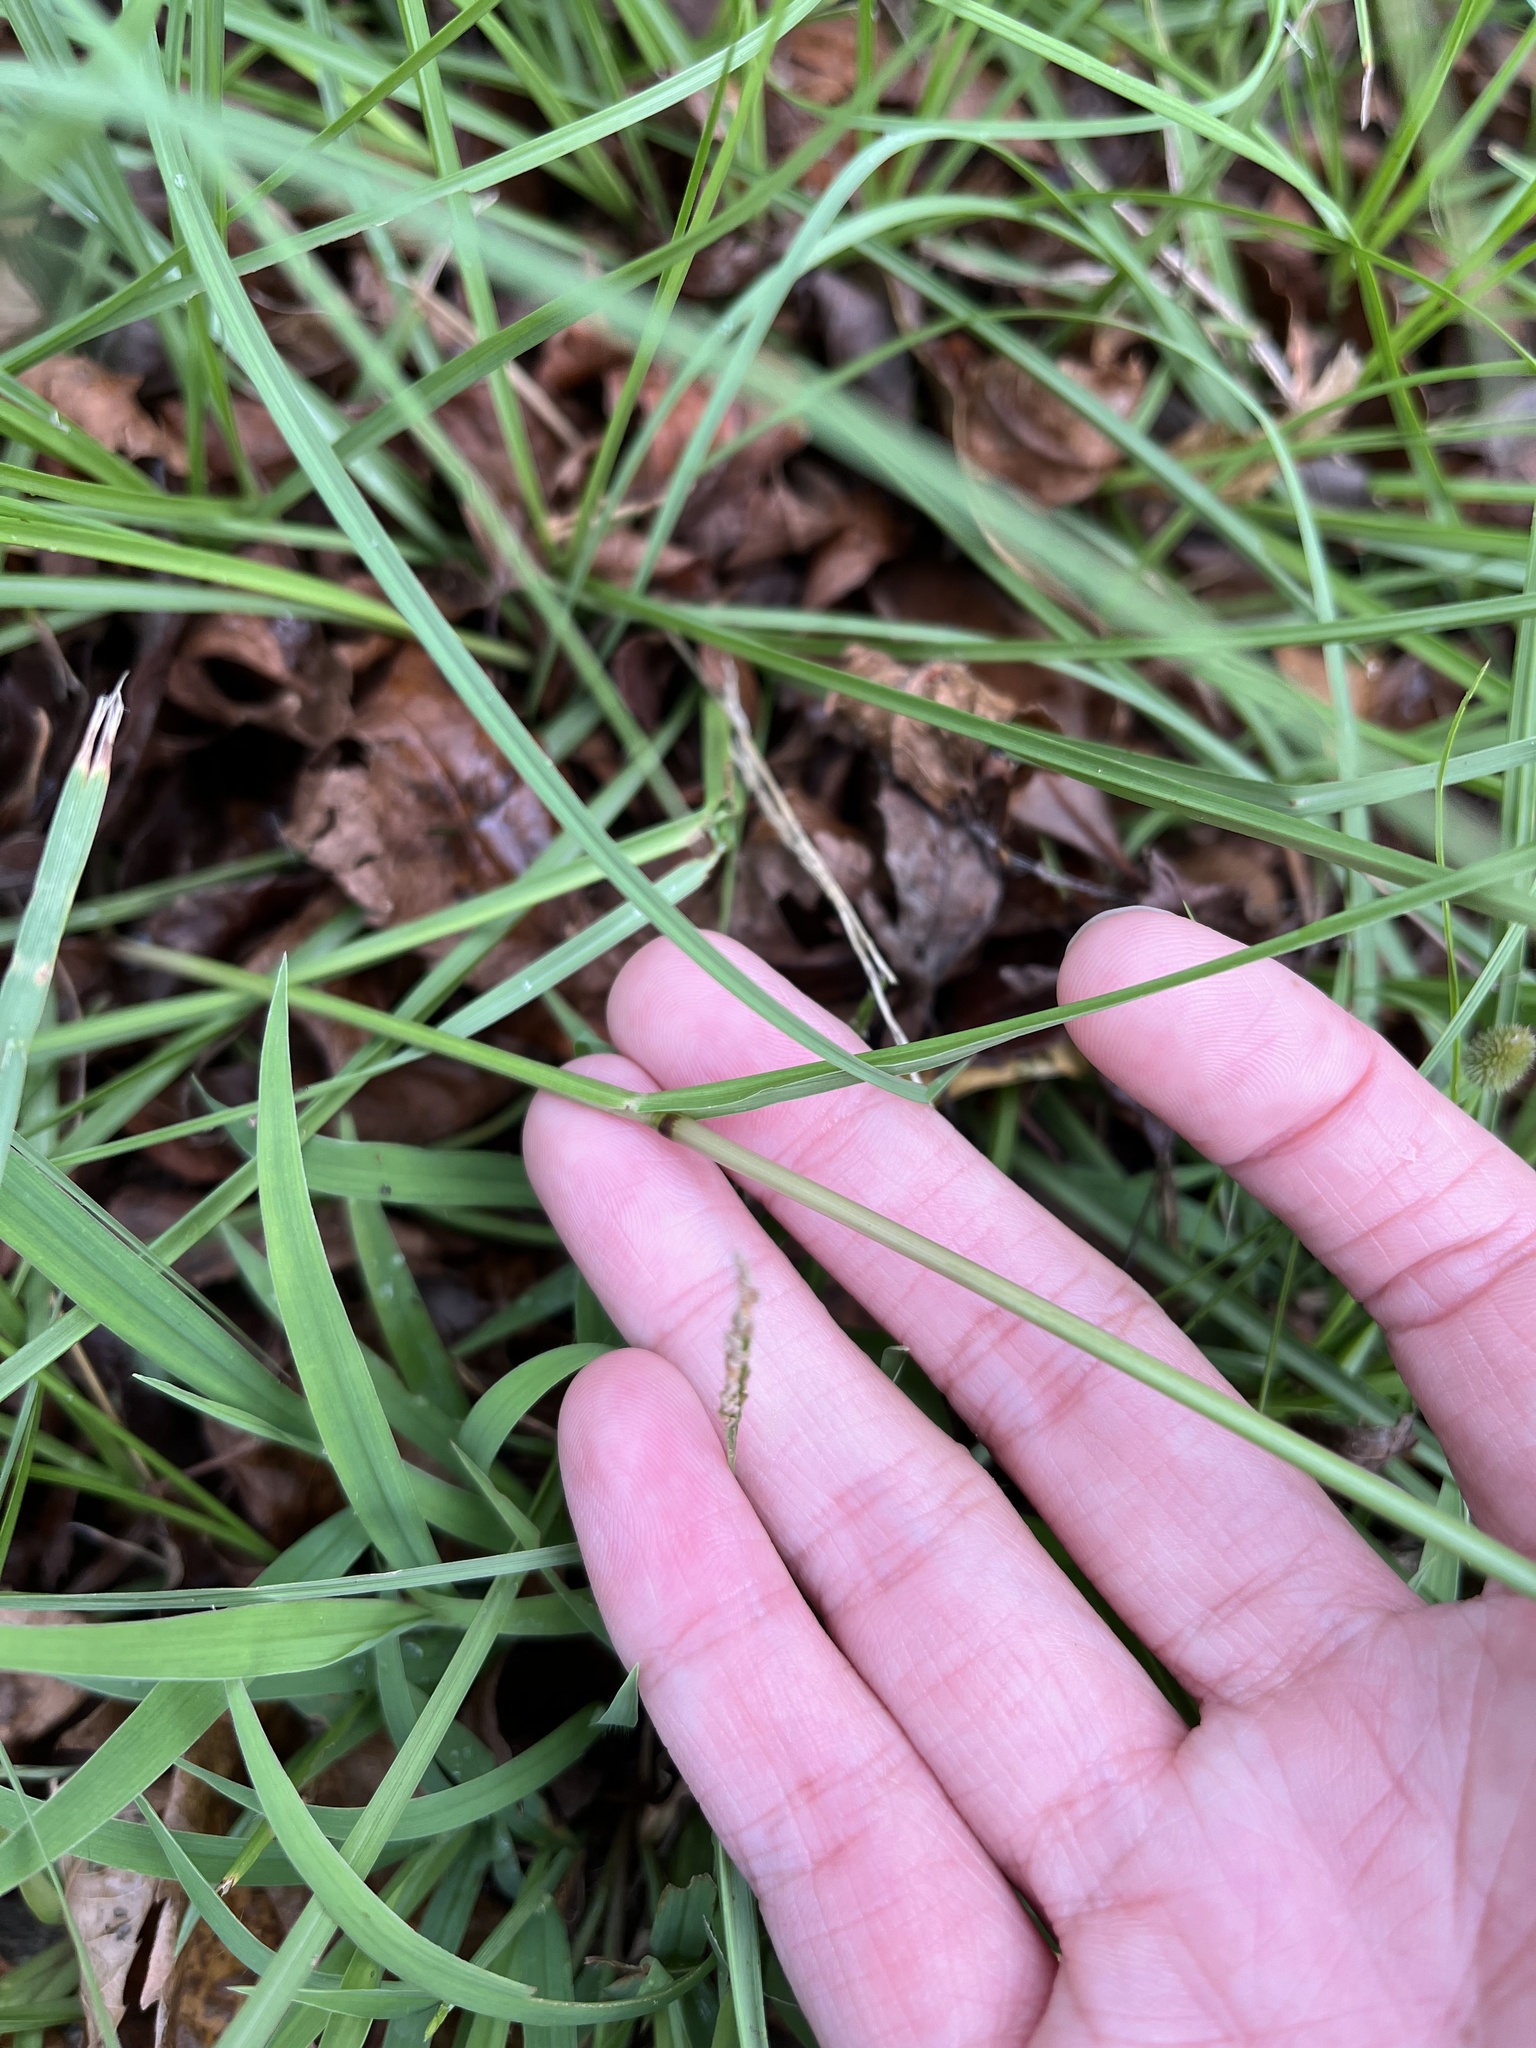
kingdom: Plantae
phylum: Tracheophyta
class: Liliopsida
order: Poales
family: Poaceae
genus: Paspalum
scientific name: Paspalum notatum
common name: Bahiagrass
